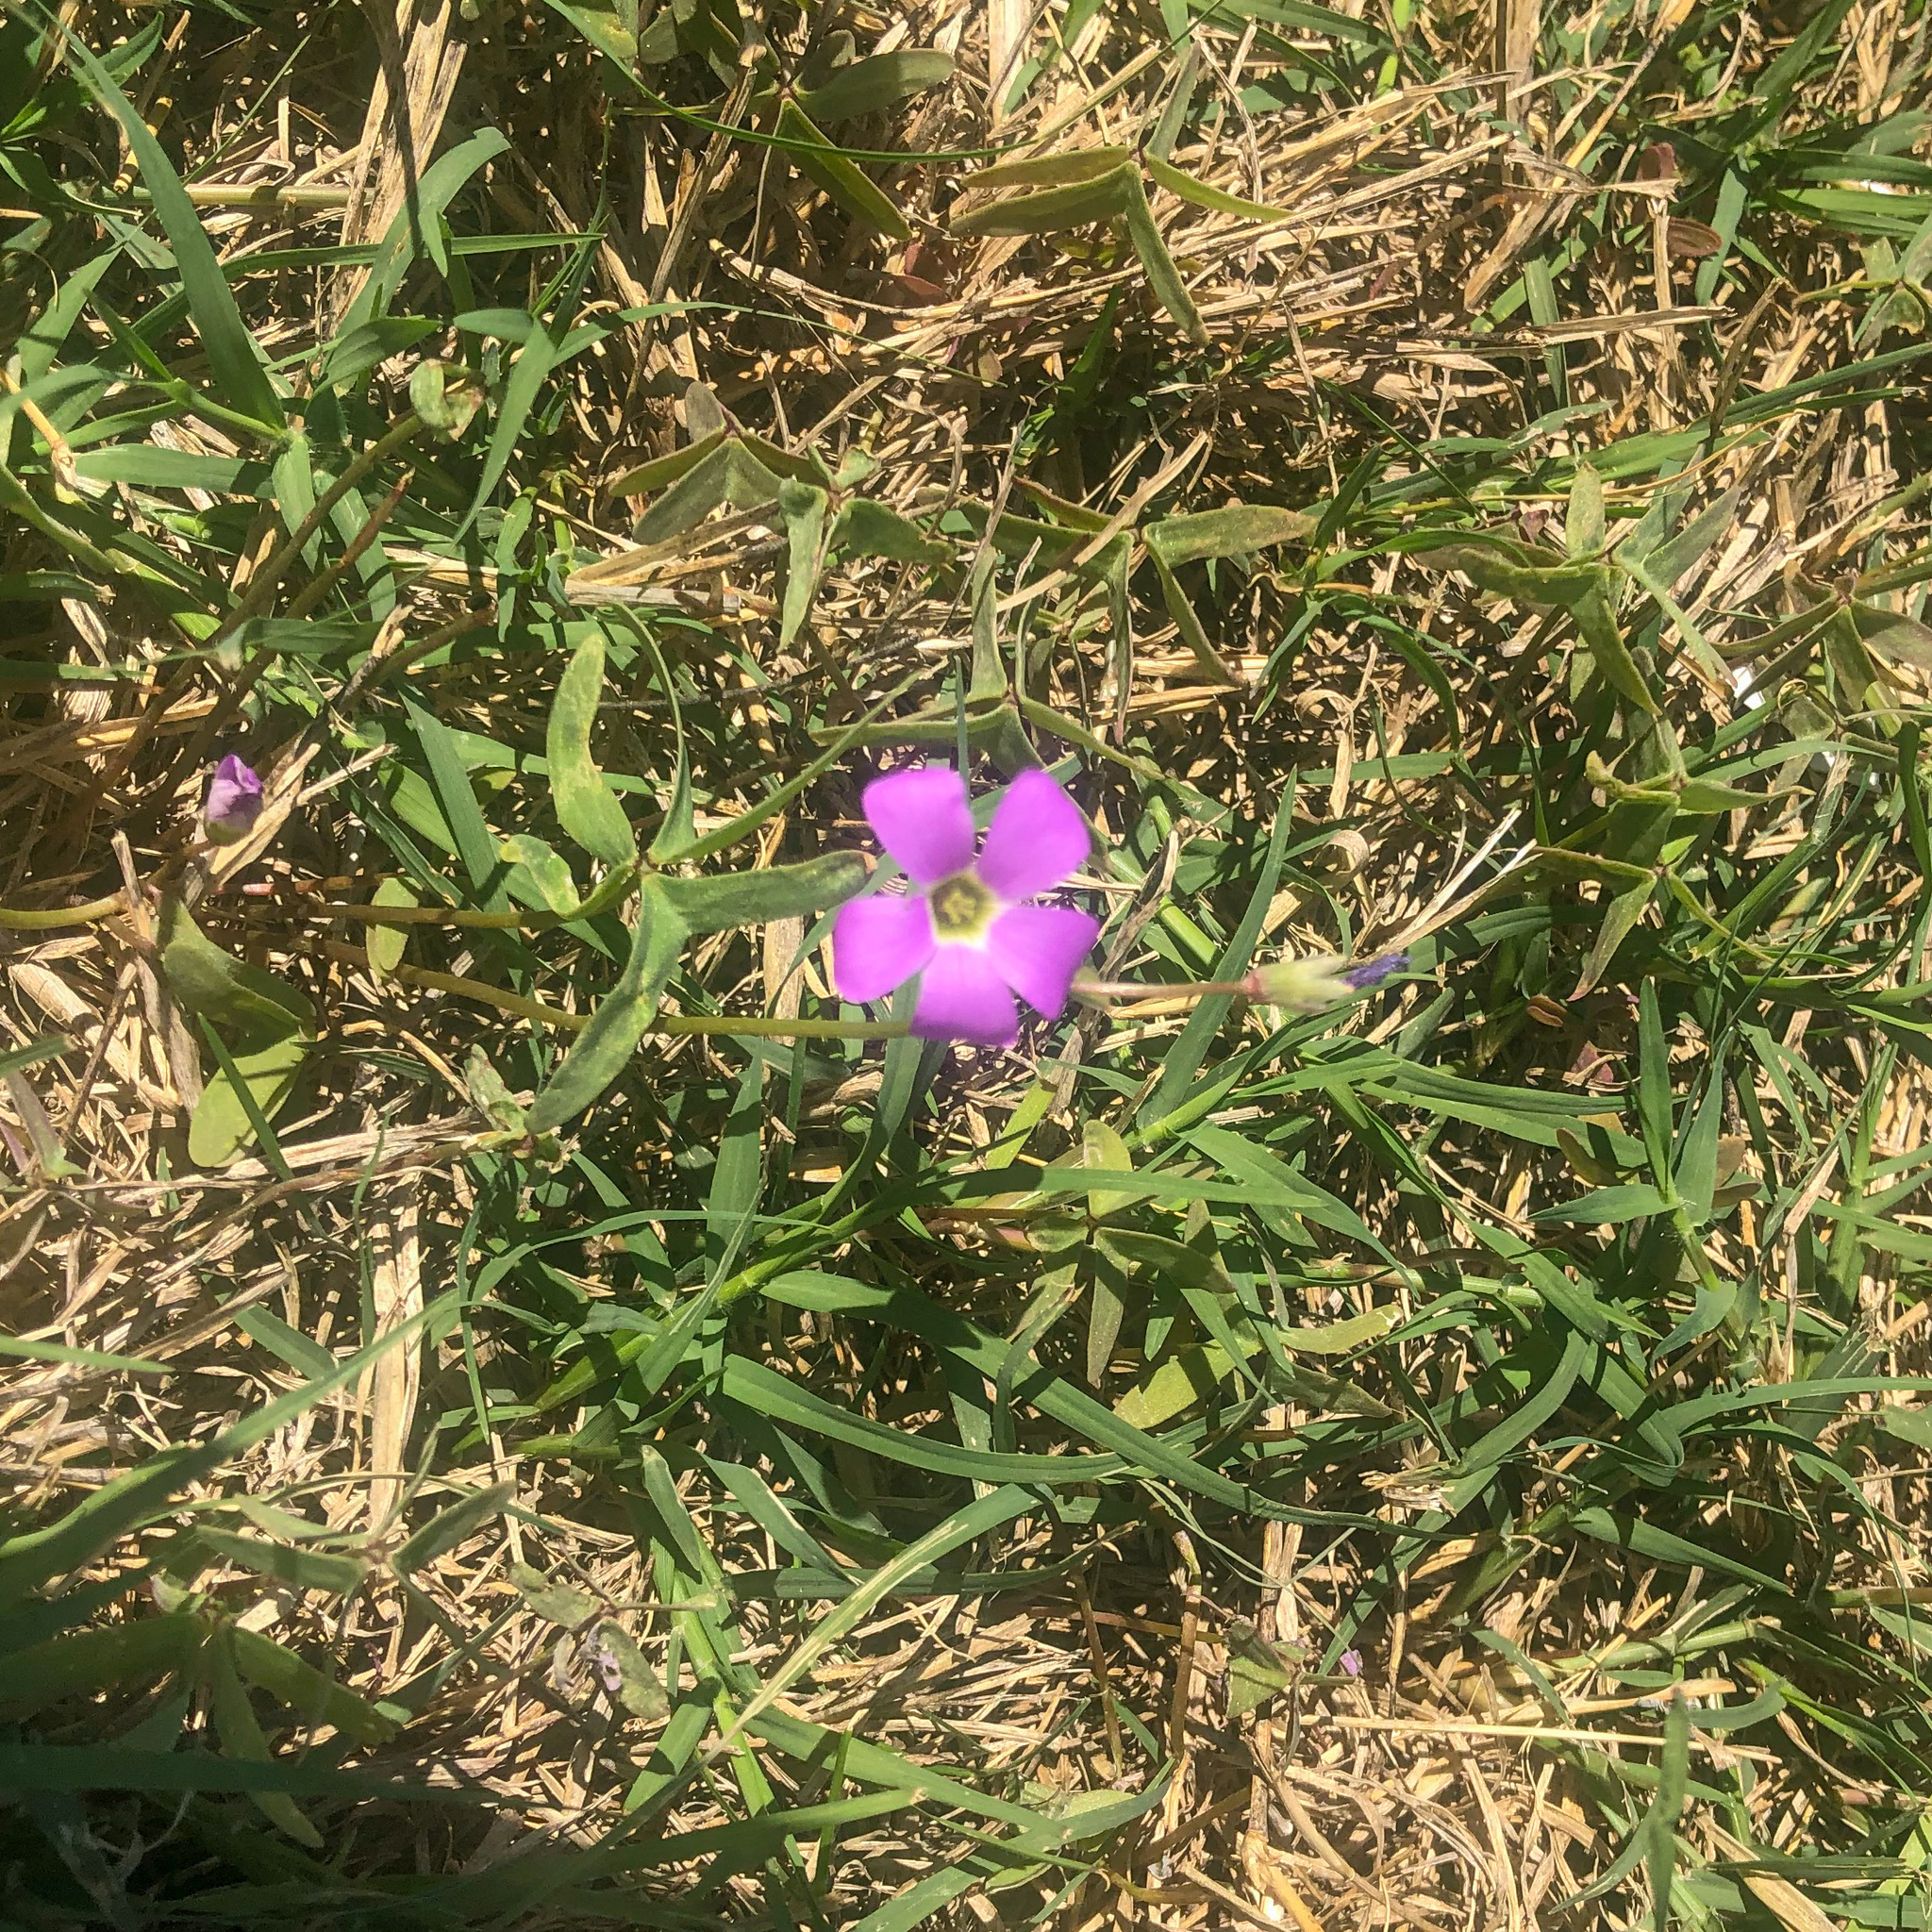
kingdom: Plantae
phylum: Tracheophyta
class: Magnoliopsida
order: Oxalidales
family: Oxalidaceae
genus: Oxalis
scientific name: Oxalis drummondii
